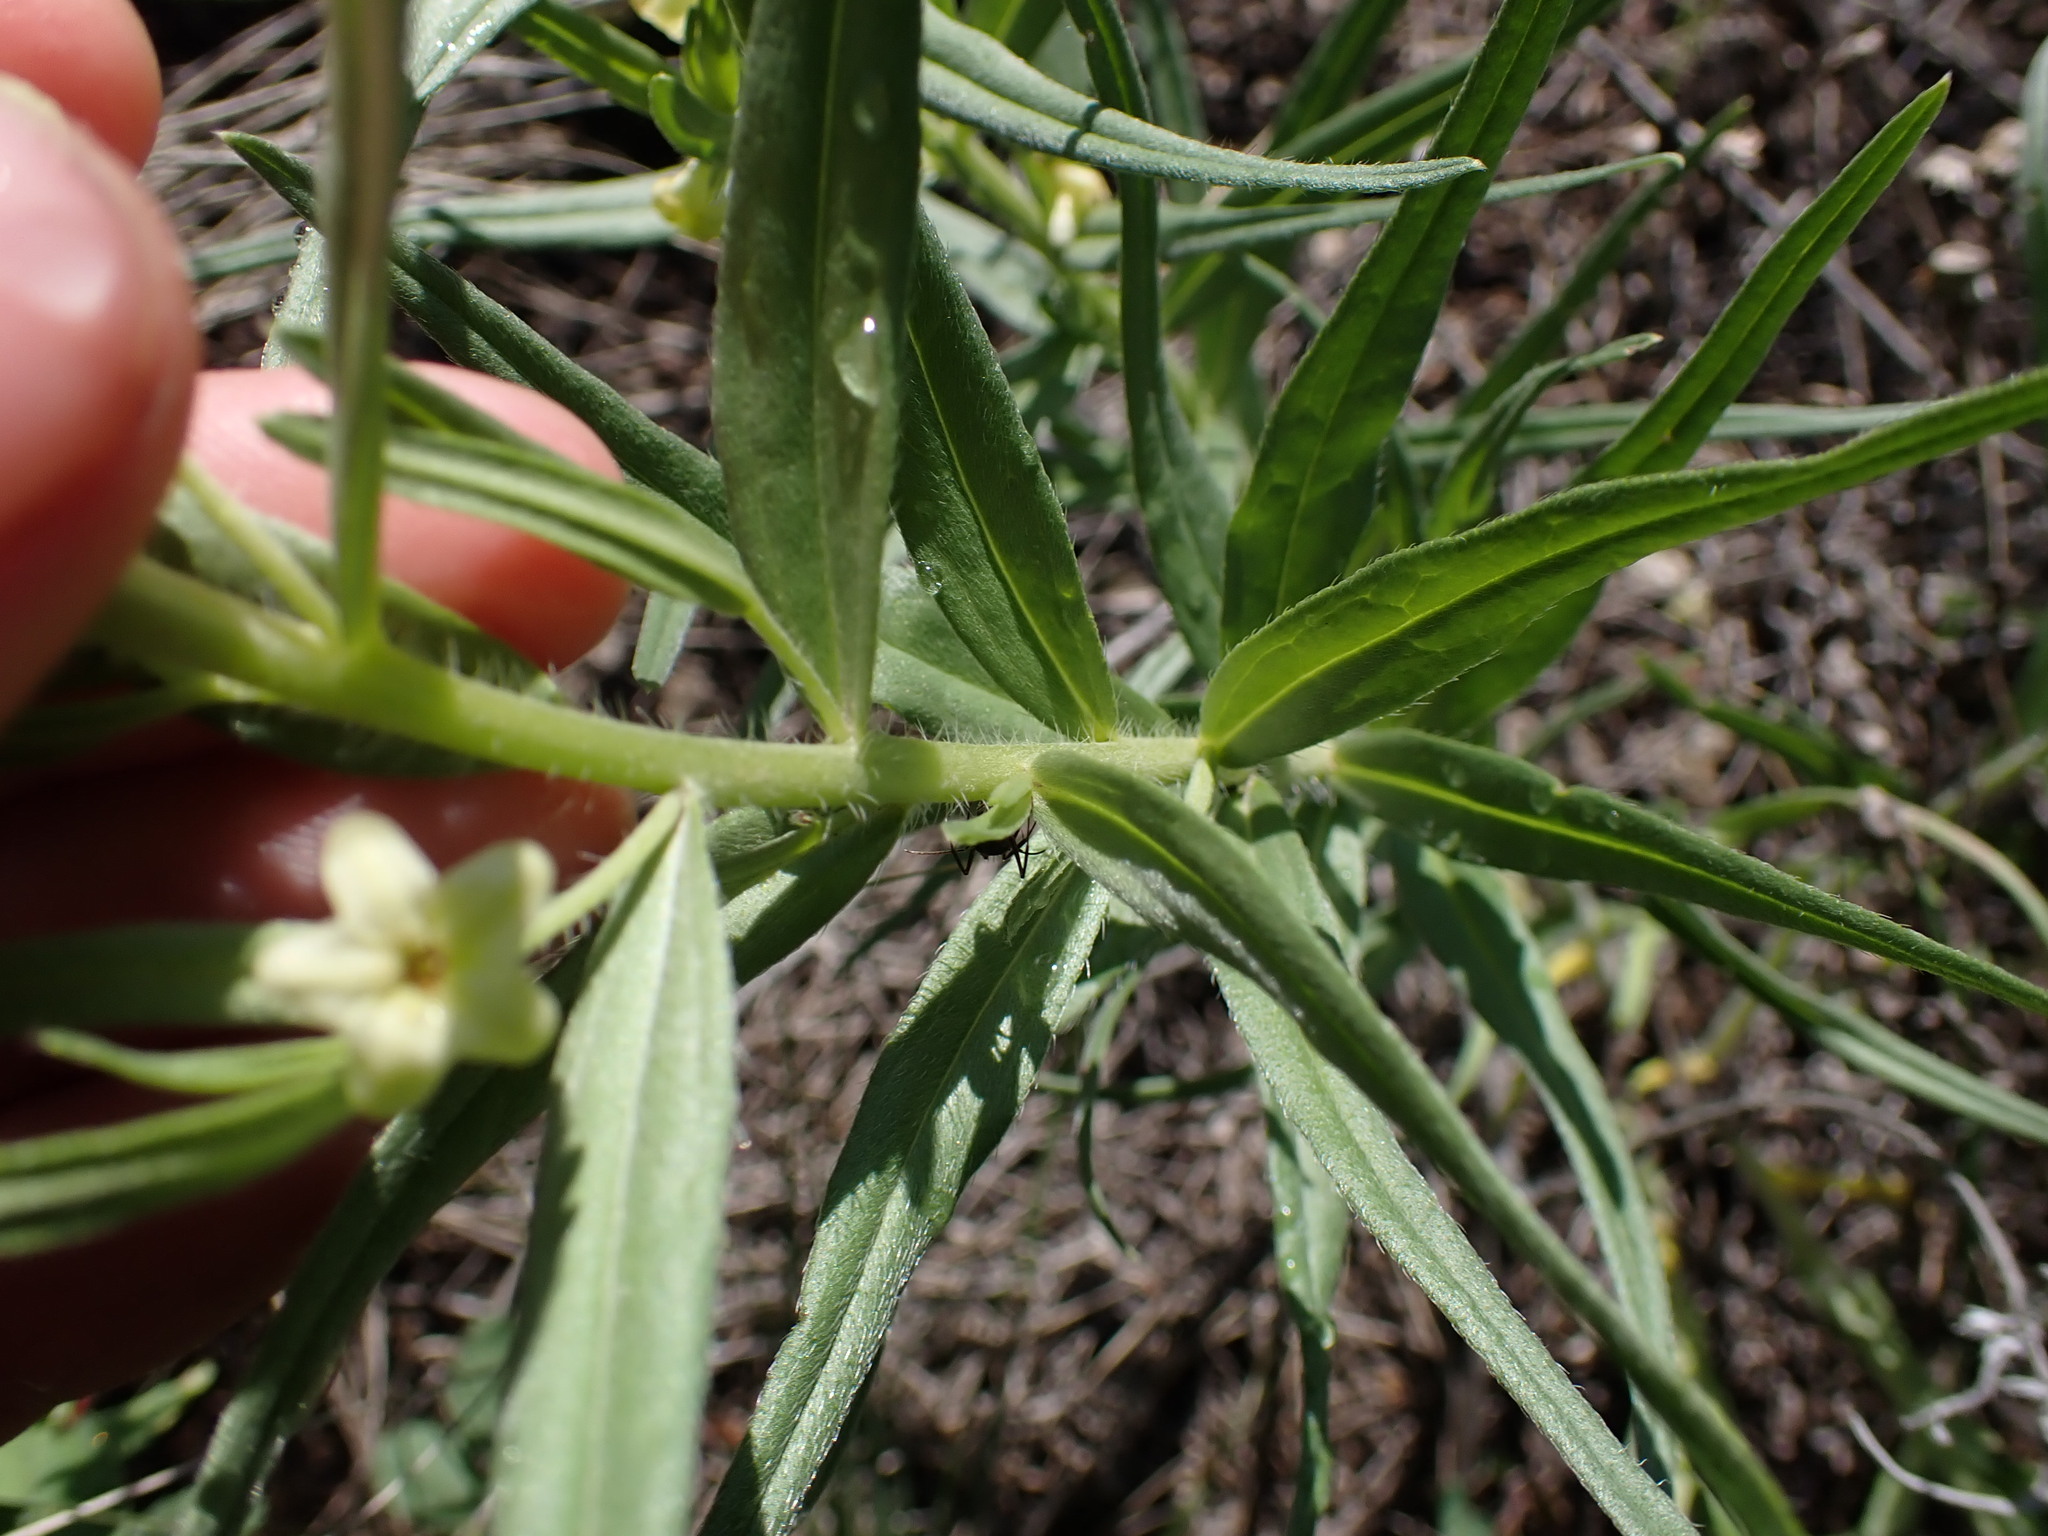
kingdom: Plantae
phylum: Tracheophyta
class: Magnoliopsida
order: Boraginales
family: Boraginaceae
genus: Lithospermum
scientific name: Lithospermum ruderale
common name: Western gromwell
